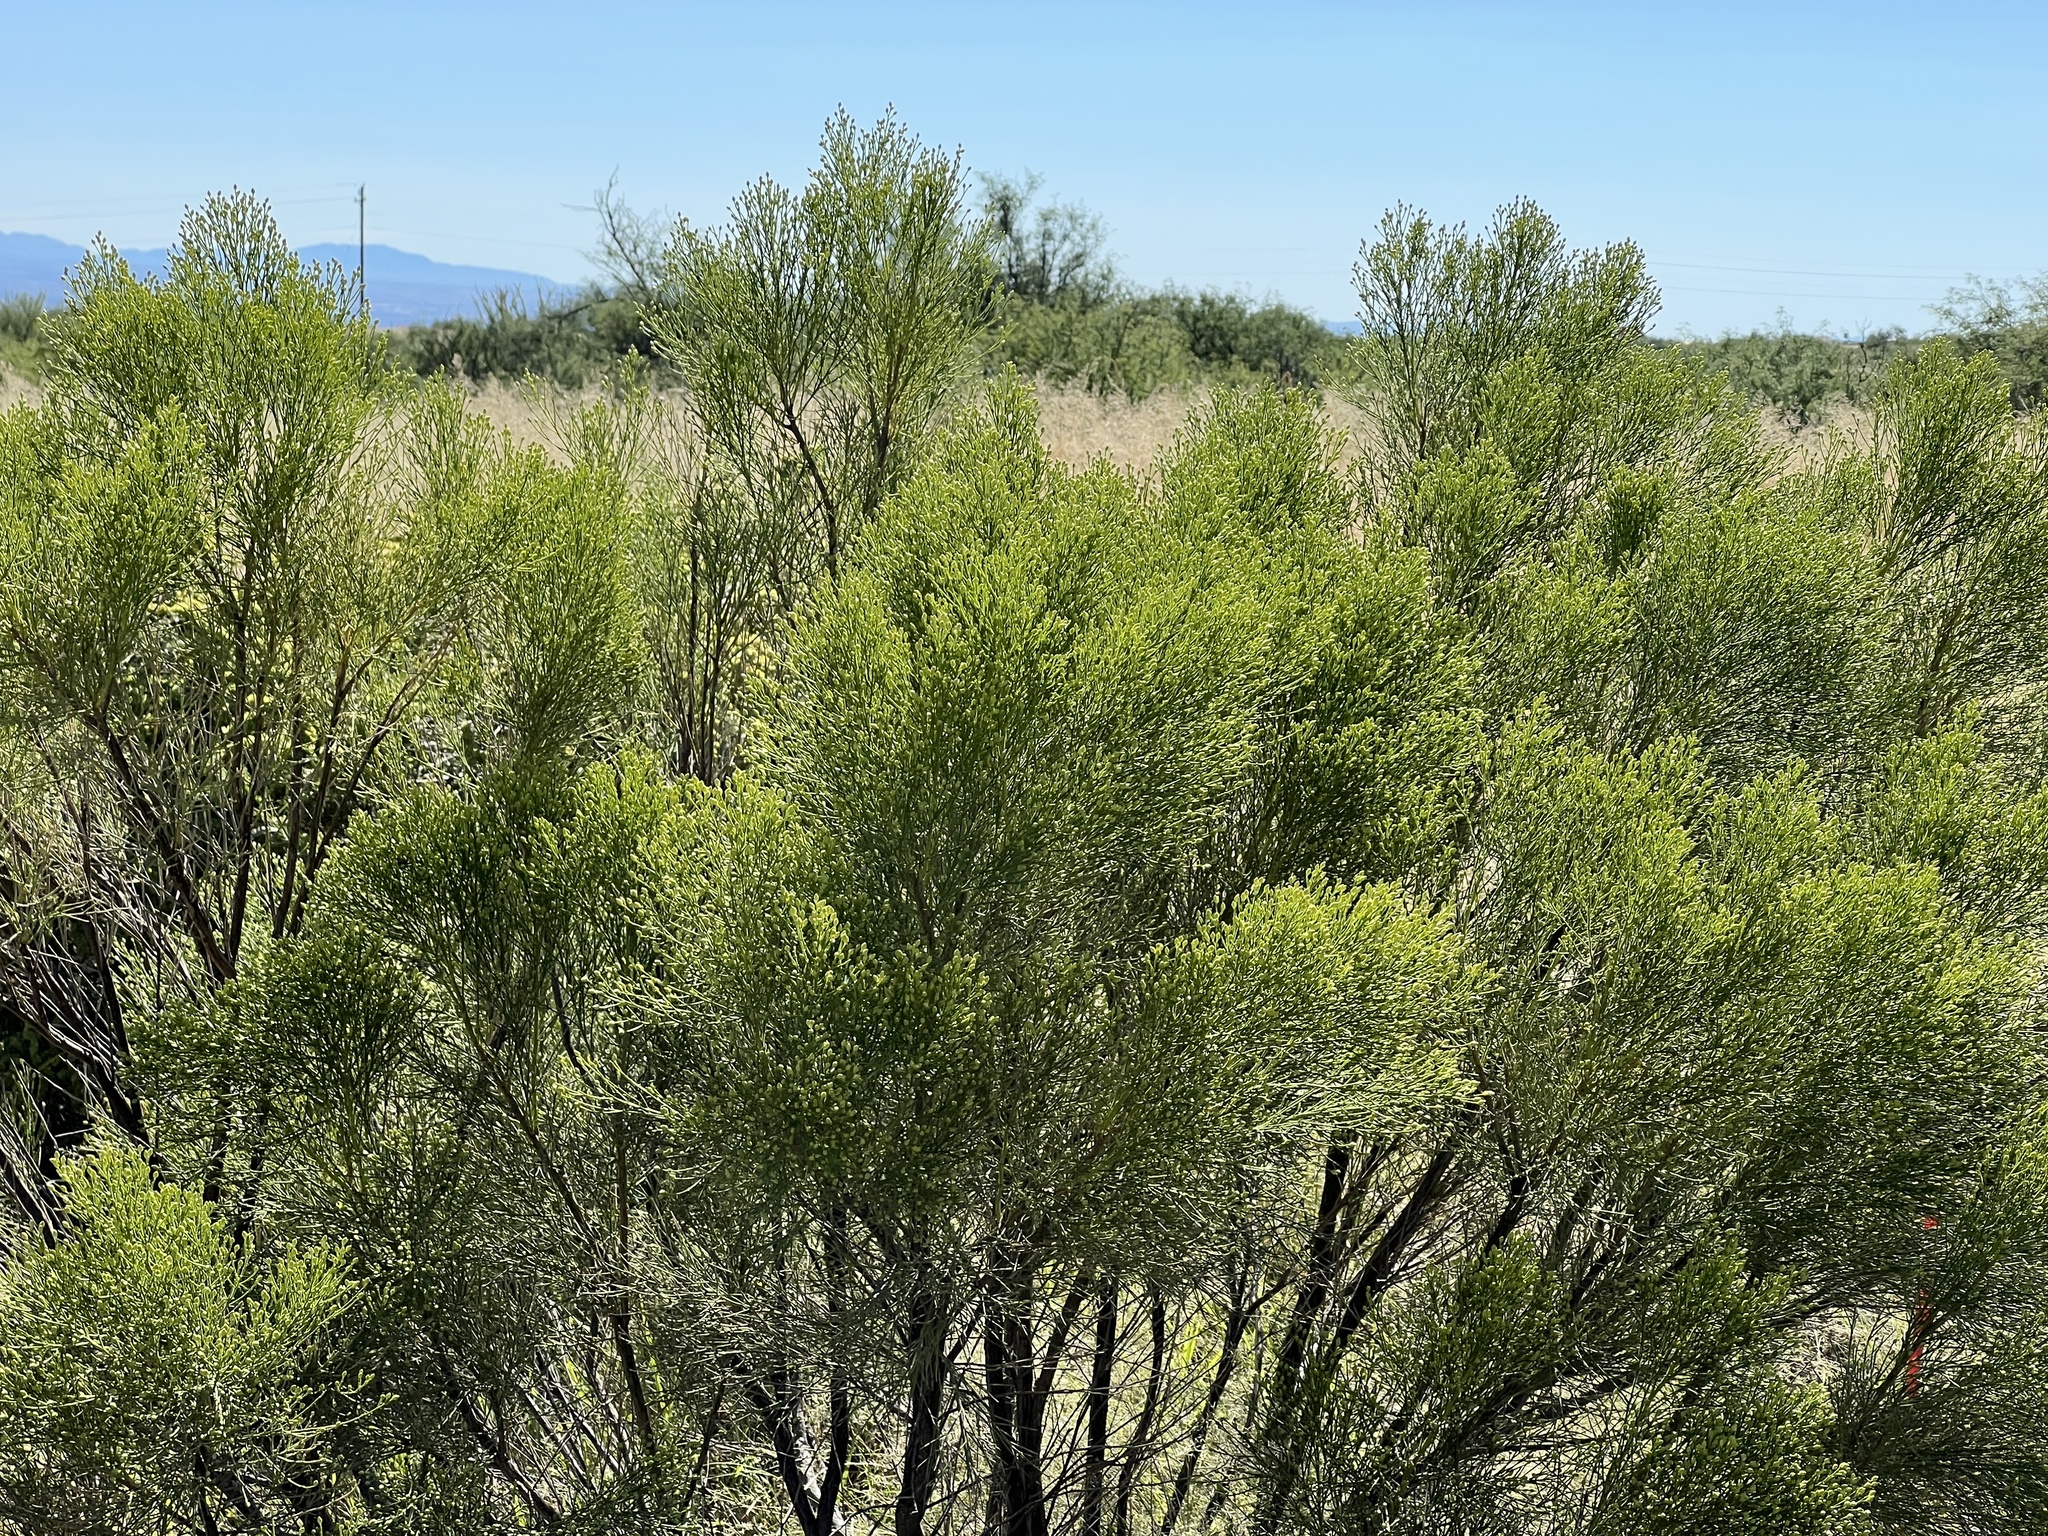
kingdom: Plantae
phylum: Tracheophyta
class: Magnoliopsida
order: Asterales
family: Asteraceae
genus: Baccharis
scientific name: Baccharis sarothroides
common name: Desert-broom
